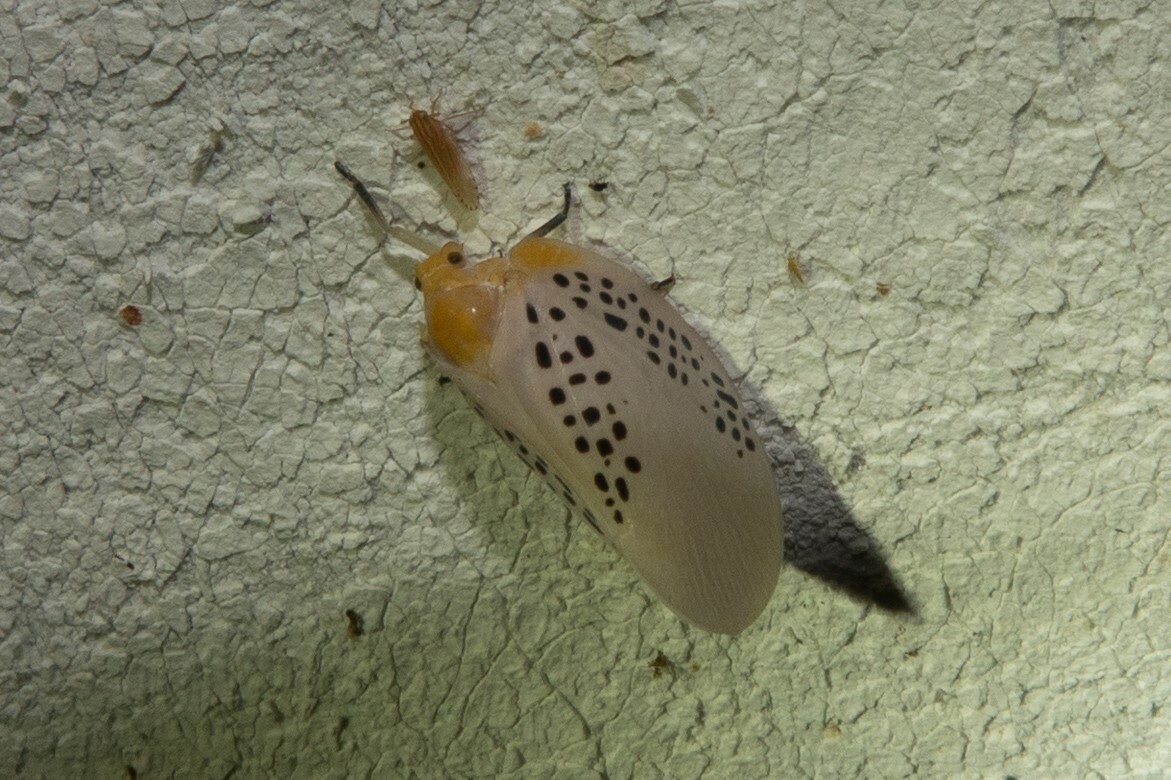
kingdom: Animalia
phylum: Arthropoda
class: Insecta
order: Hemiptera
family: Flatidae
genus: Poekilloptera
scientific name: Poekilloptera phalaenoides
